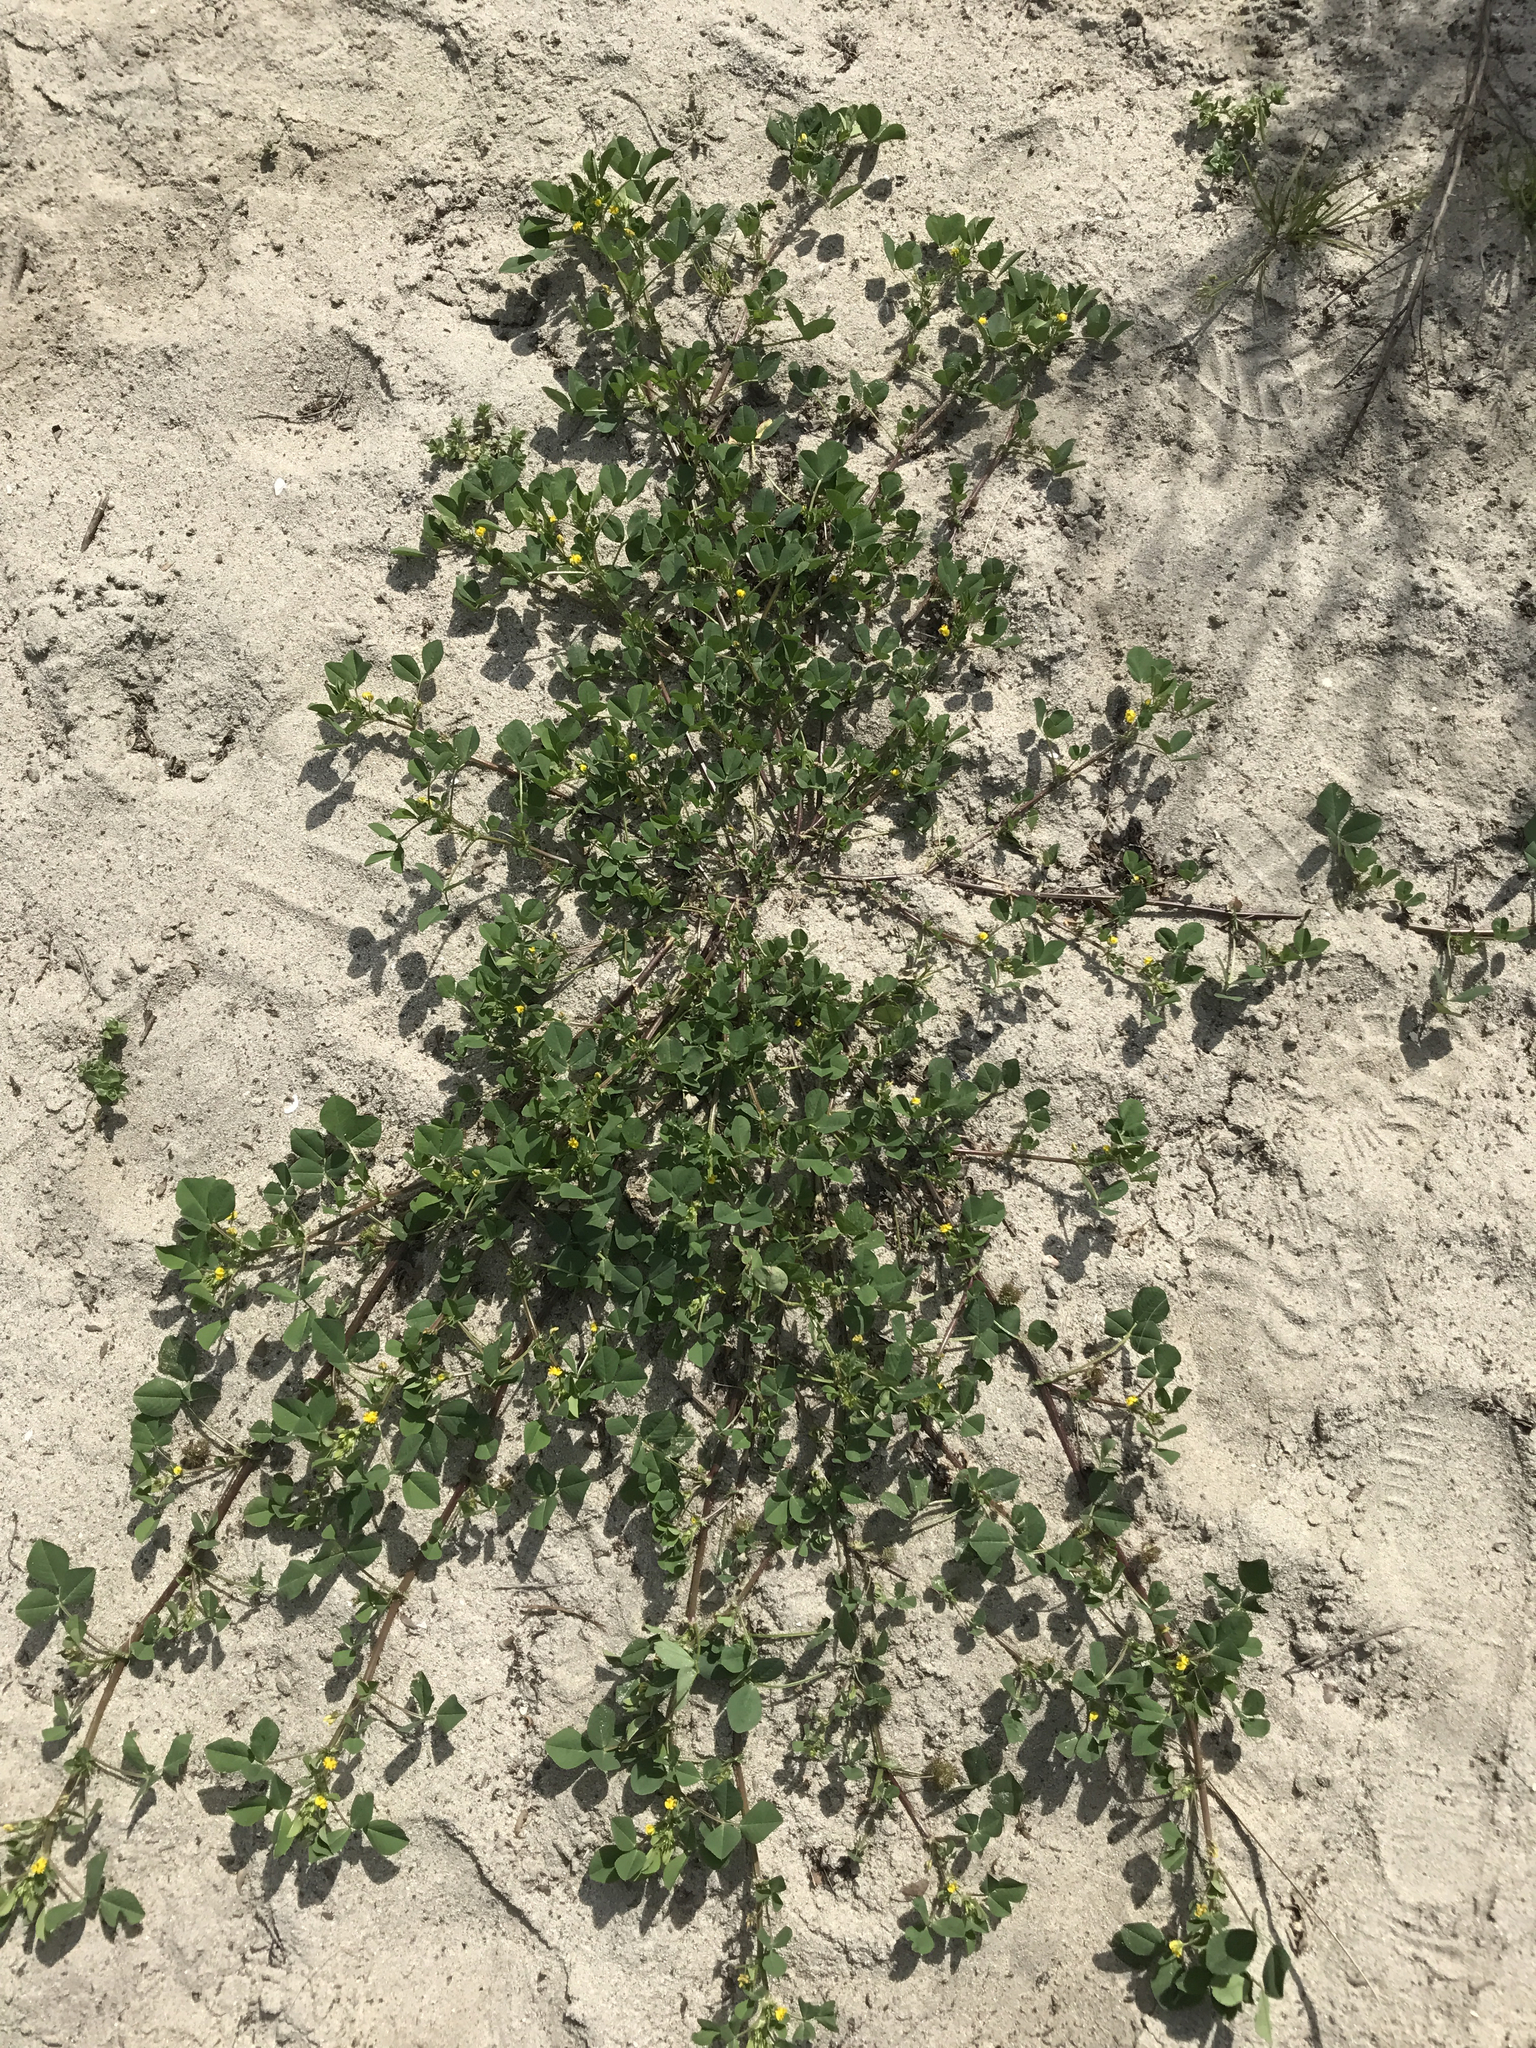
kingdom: Plantae
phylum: Tracheophyta
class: Magnoliopsida
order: Fabales
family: Fabaceae
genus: Medicago
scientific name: Medicago polymorpha
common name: Burclover
